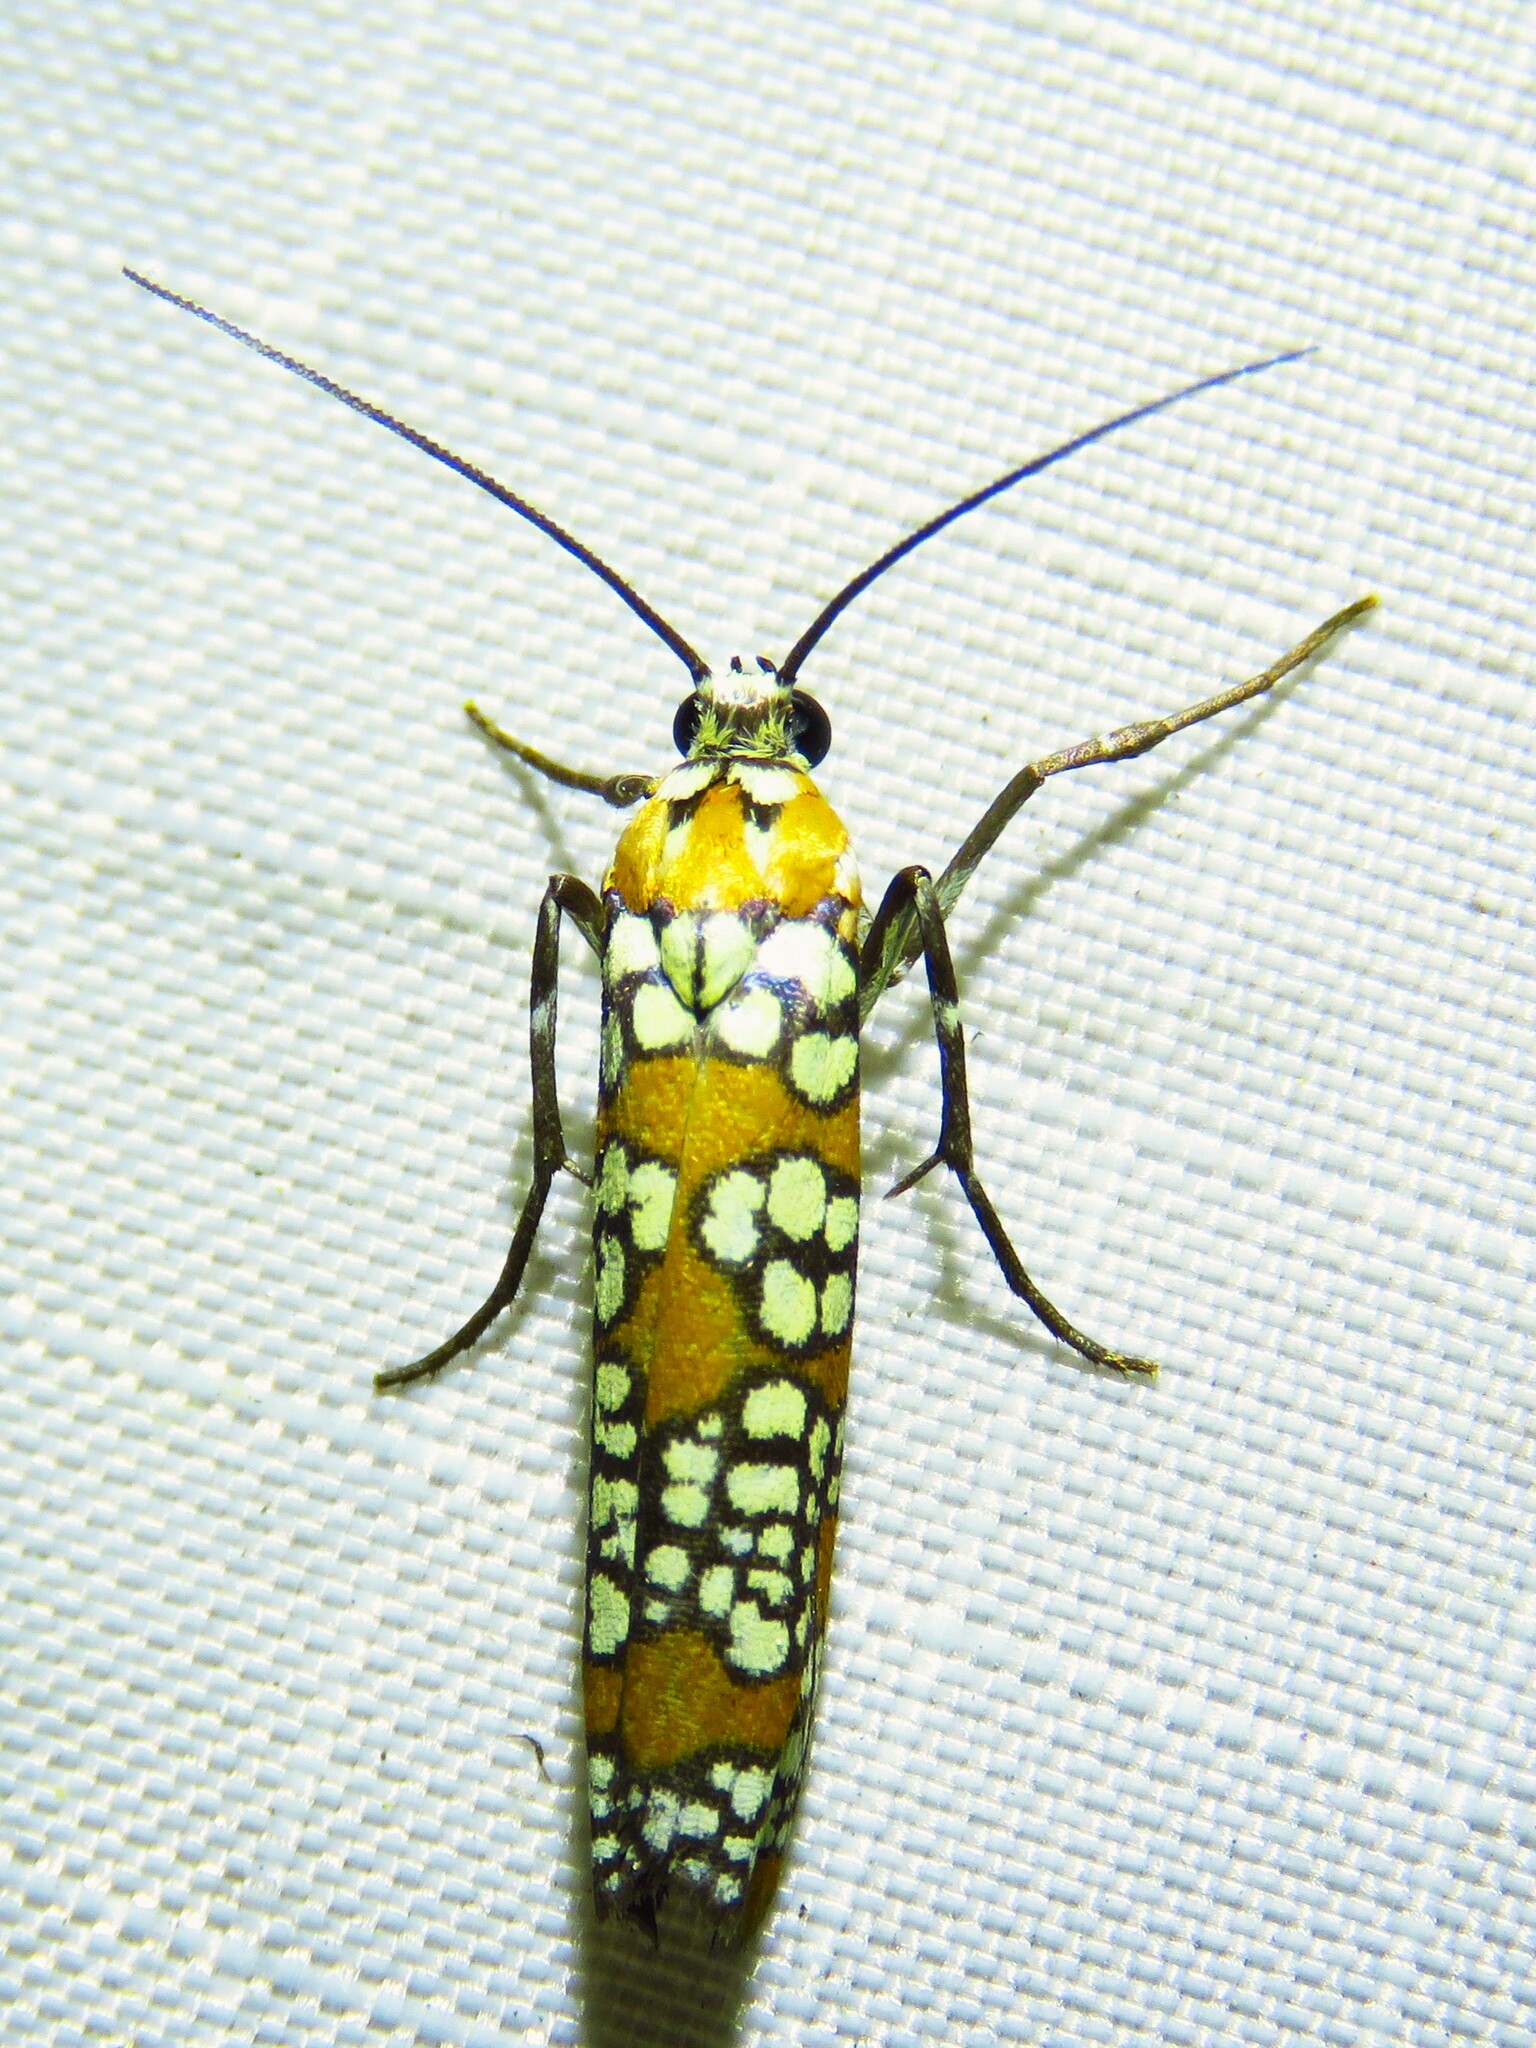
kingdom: Animalia
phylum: Arthropoda
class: Insecta
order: Lepidoptera
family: Attevidae
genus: Atteva
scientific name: Atteva punctella
